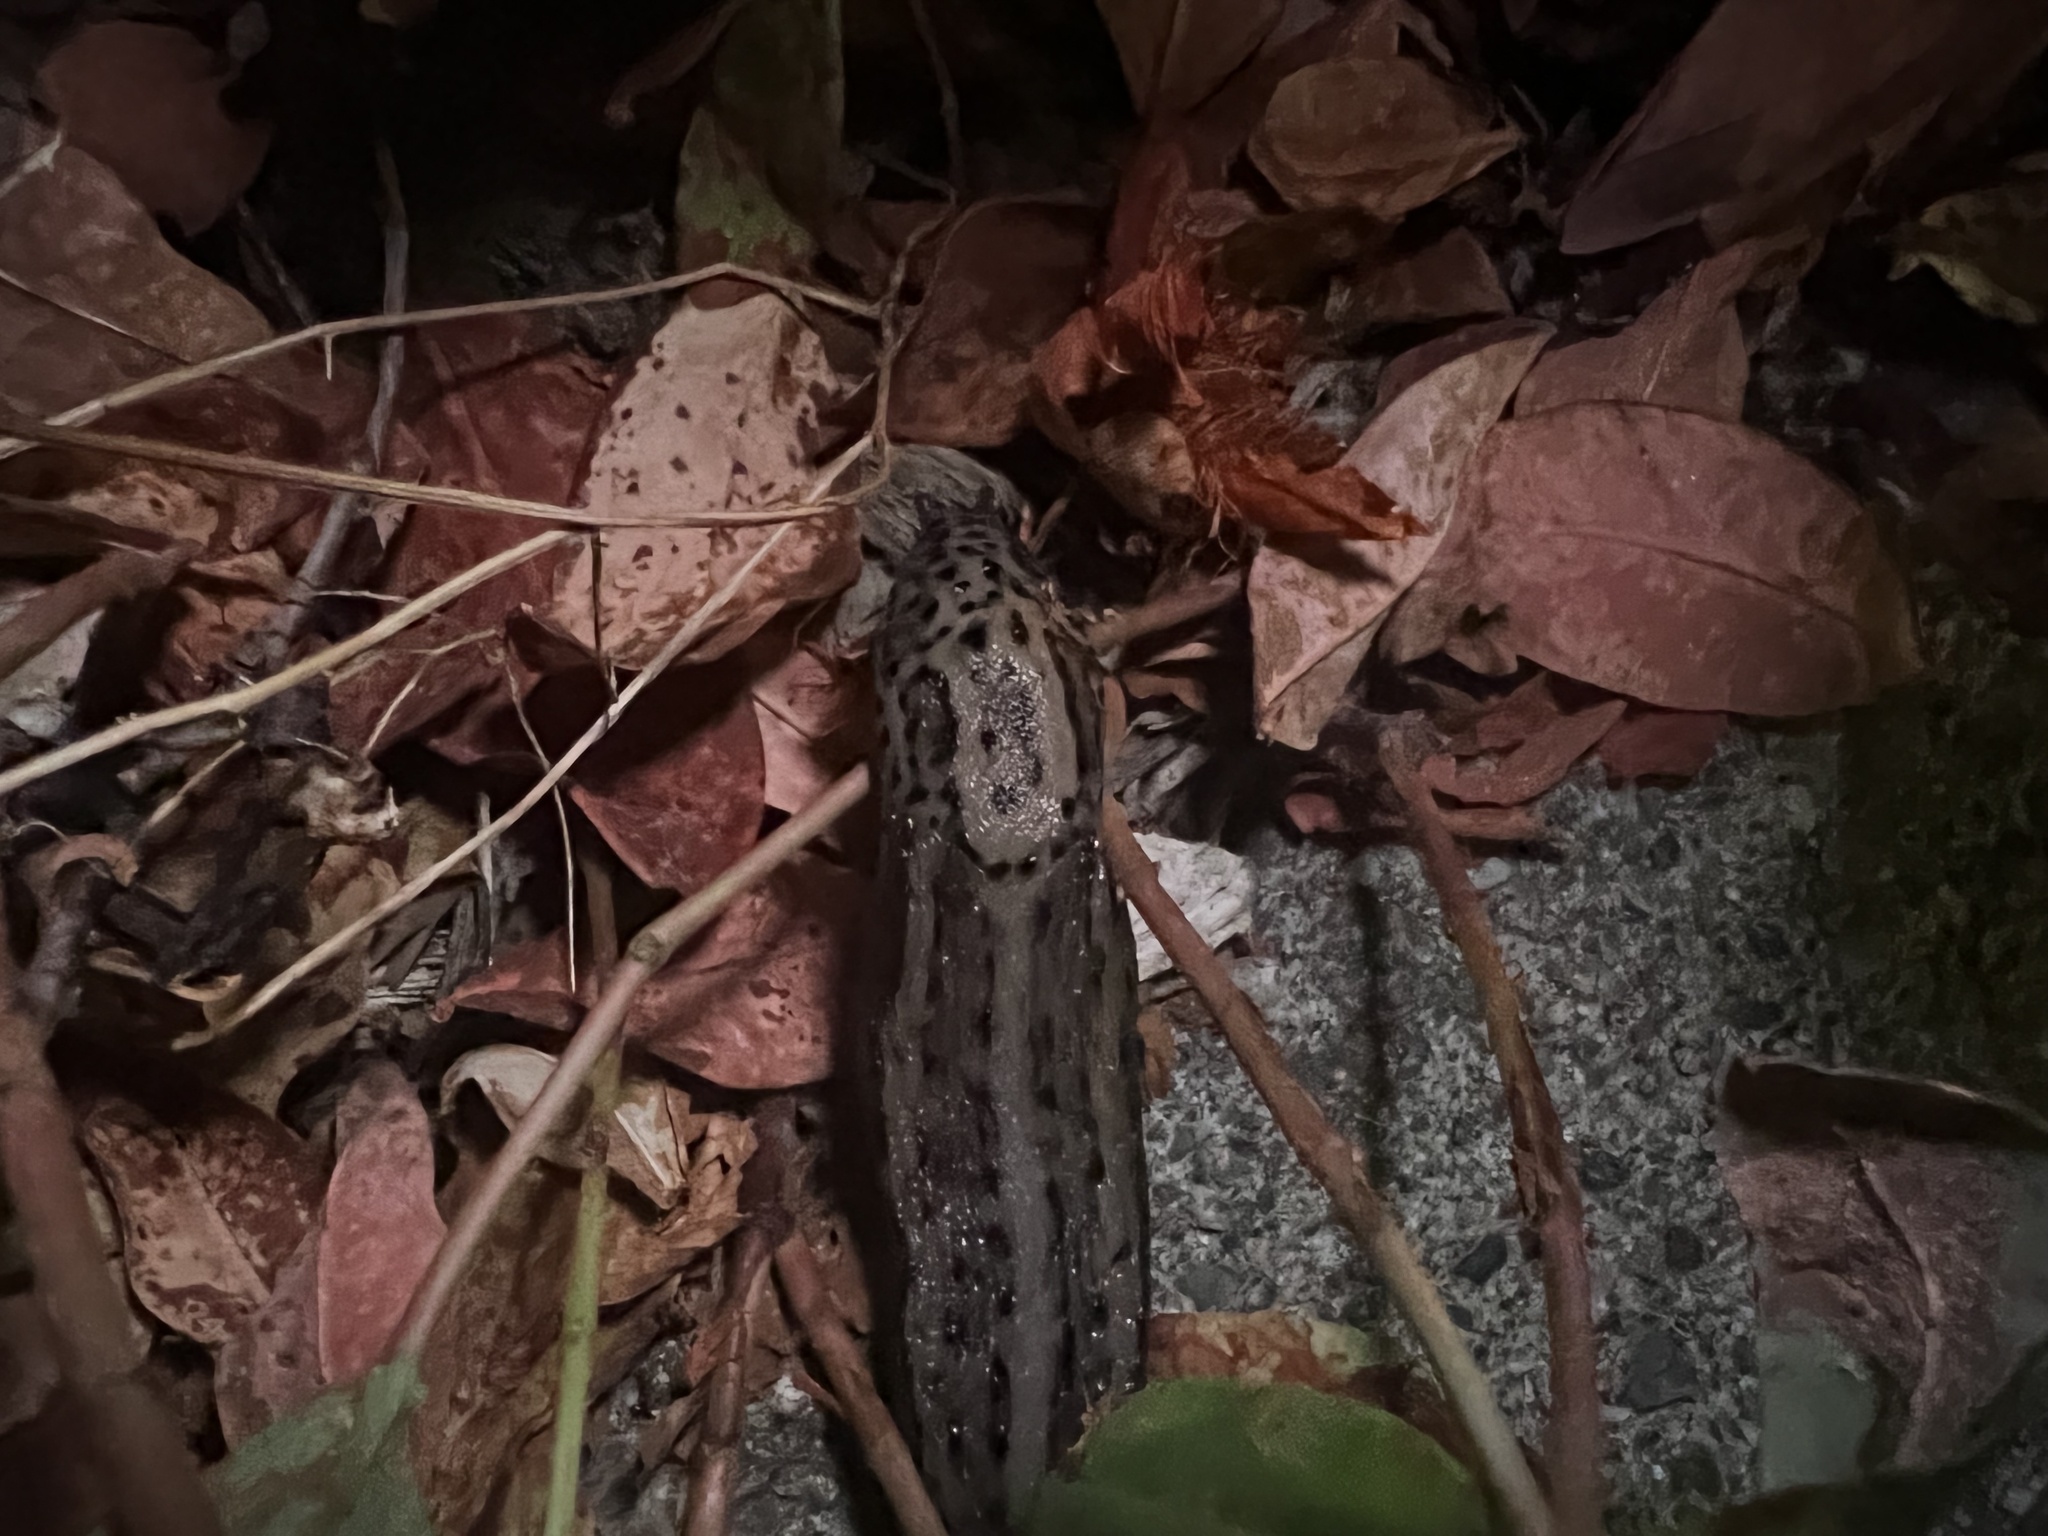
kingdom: Animalia
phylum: Mollusca
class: Gastropoda
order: Stylommatophora
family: Limacidae
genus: Limax
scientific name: Limax maximus
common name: Great grey slug
